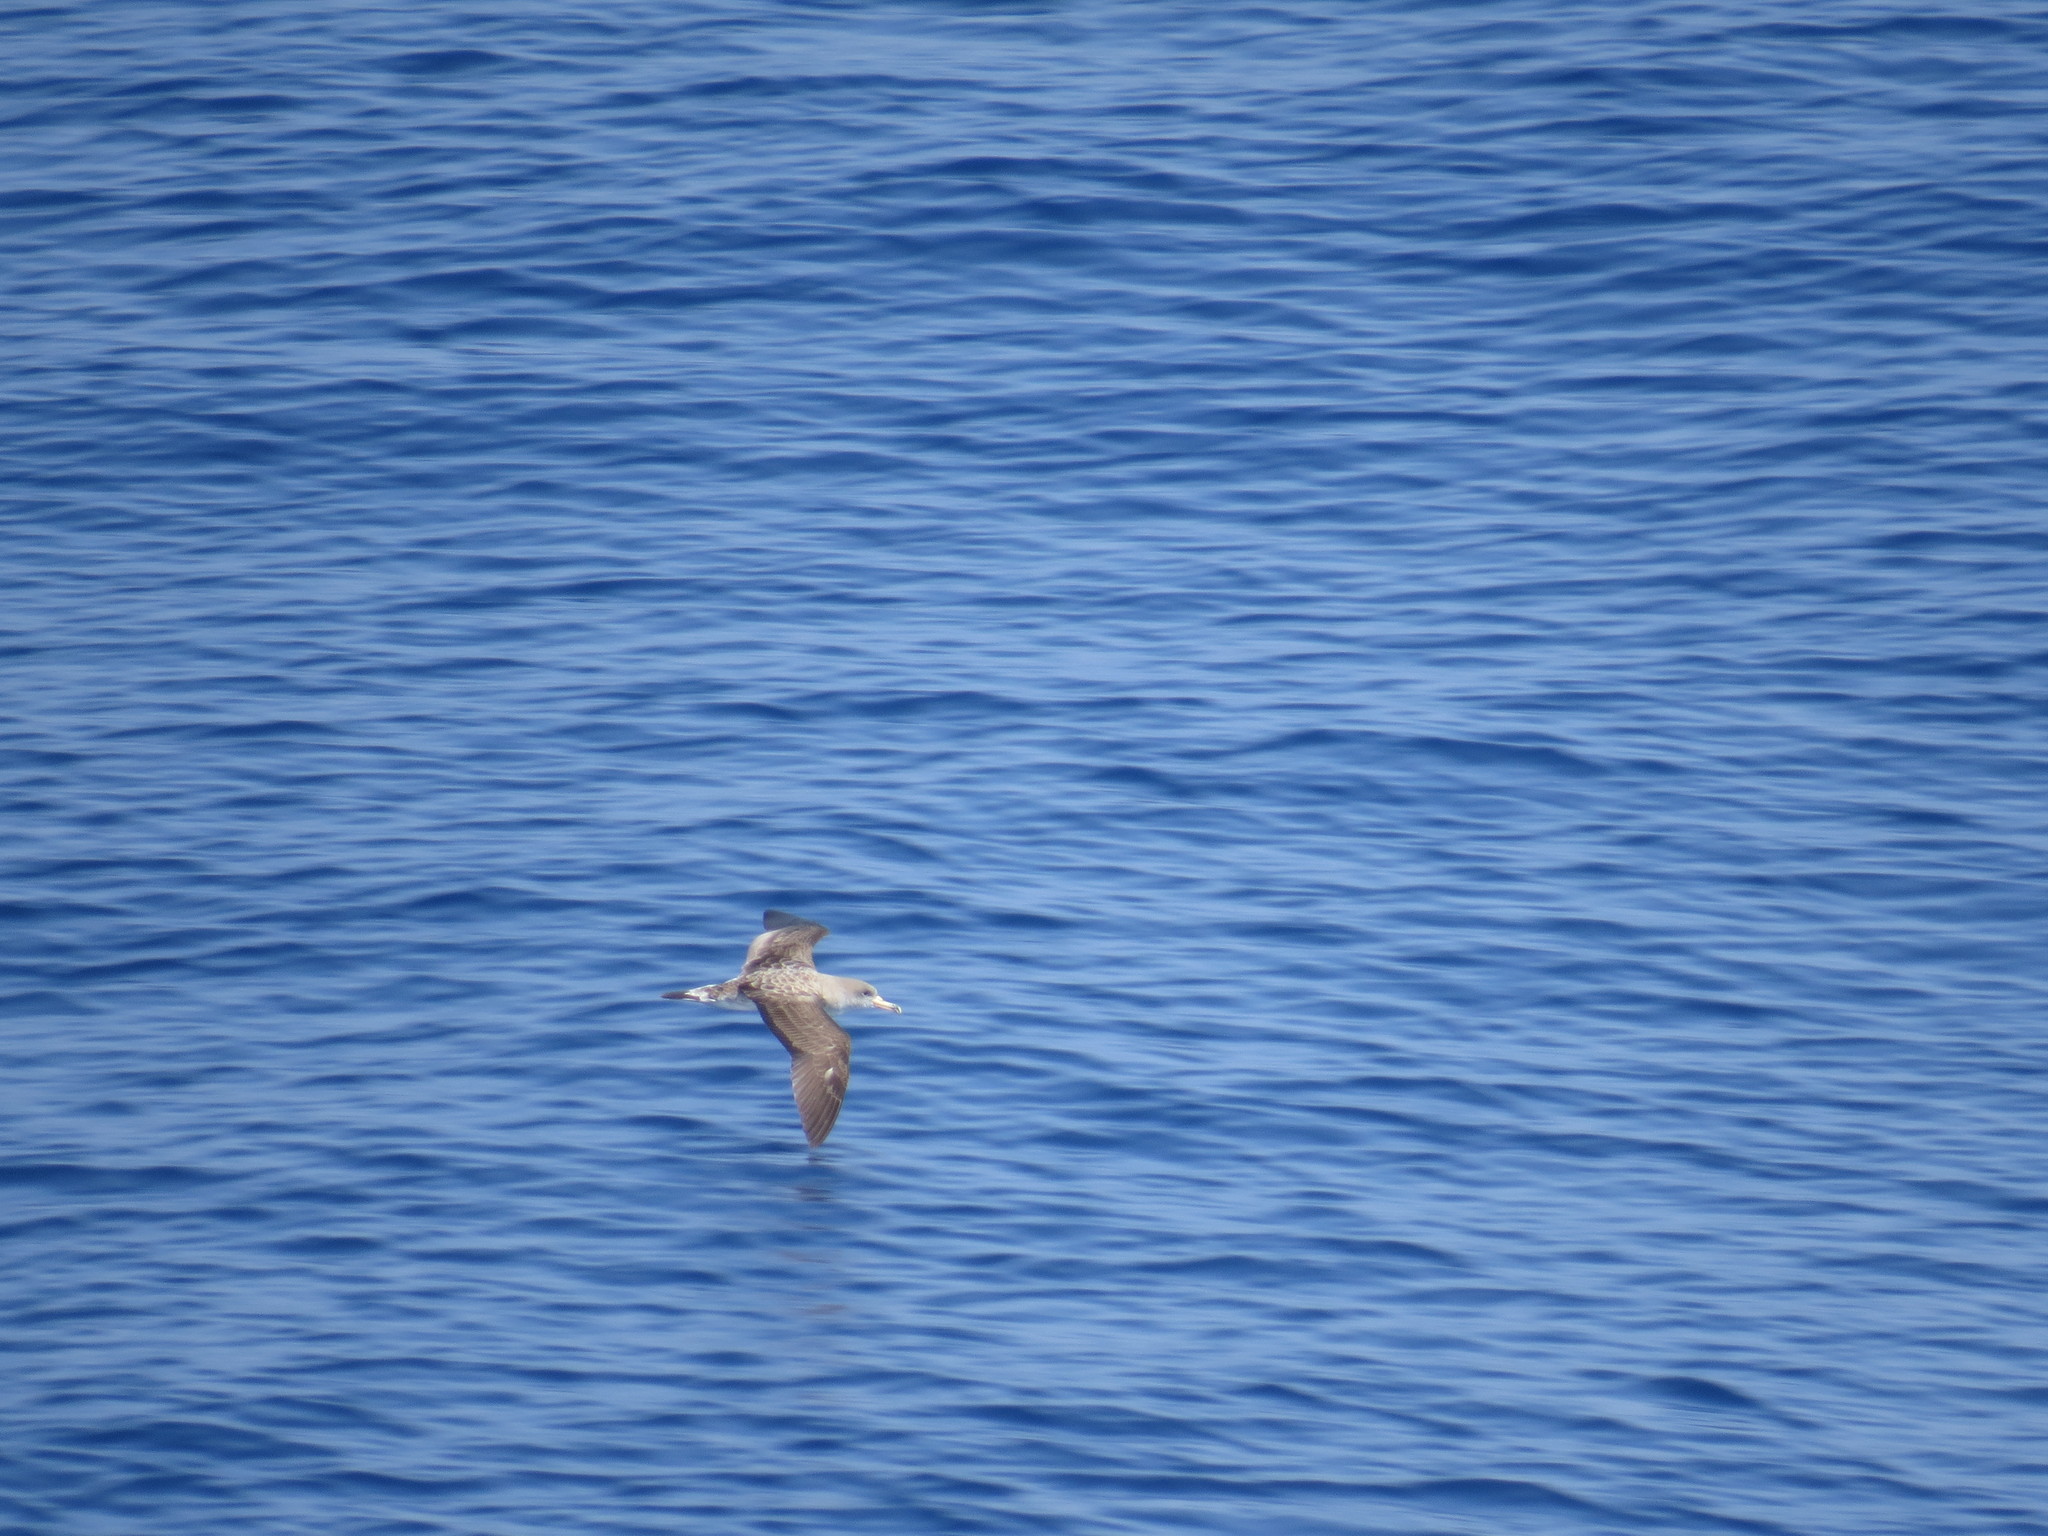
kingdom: Animalia
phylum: Chordata
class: Aves
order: Procellariiformes
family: Procellariidae
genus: Calonectris
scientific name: Calonectris diomedea
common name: Cory's shearwater
